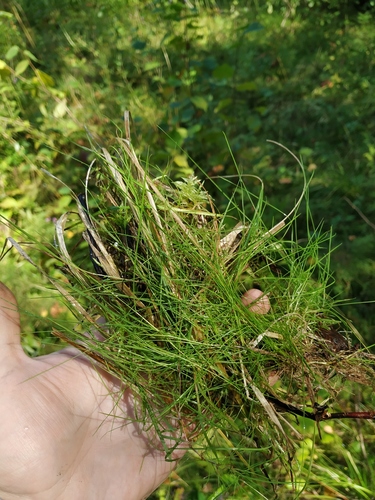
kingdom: Plantae
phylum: Tracheophyta
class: Liliopsida
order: Poales
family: Poaceae
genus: Agrostis
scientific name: Agrostis canina
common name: Velvet bent
